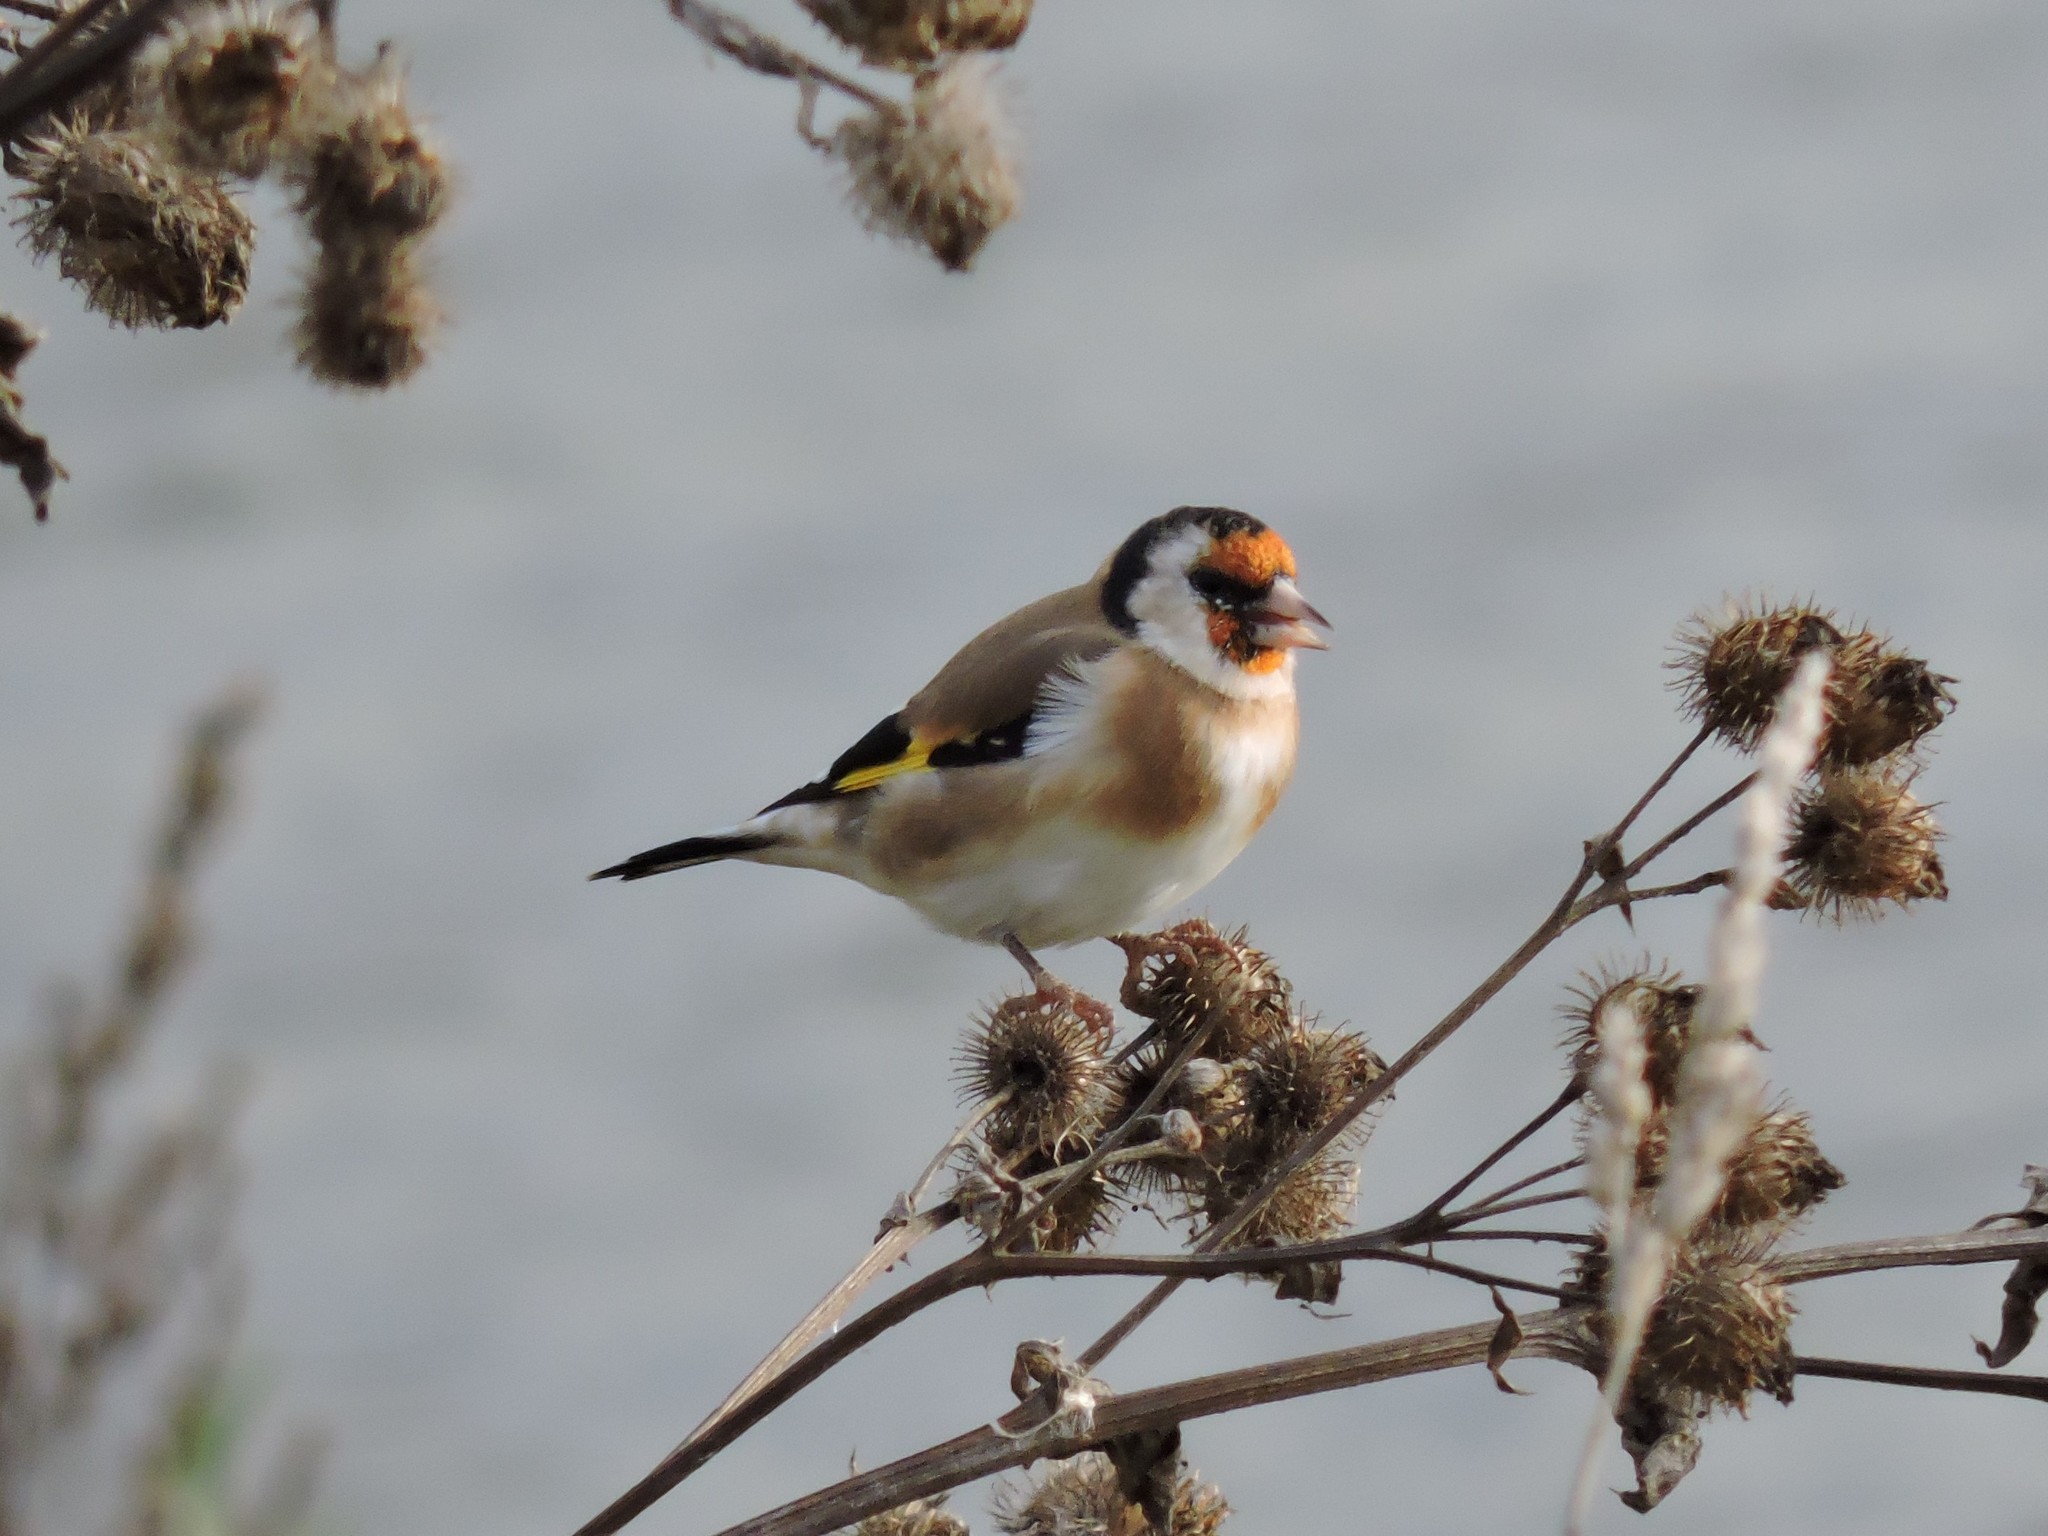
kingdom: Animalia
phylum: Chordata
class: Aves
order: Passeriformes
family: Fringillidae
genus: Carduelis
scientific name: Carduelis carduelis
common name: European goldfinch
